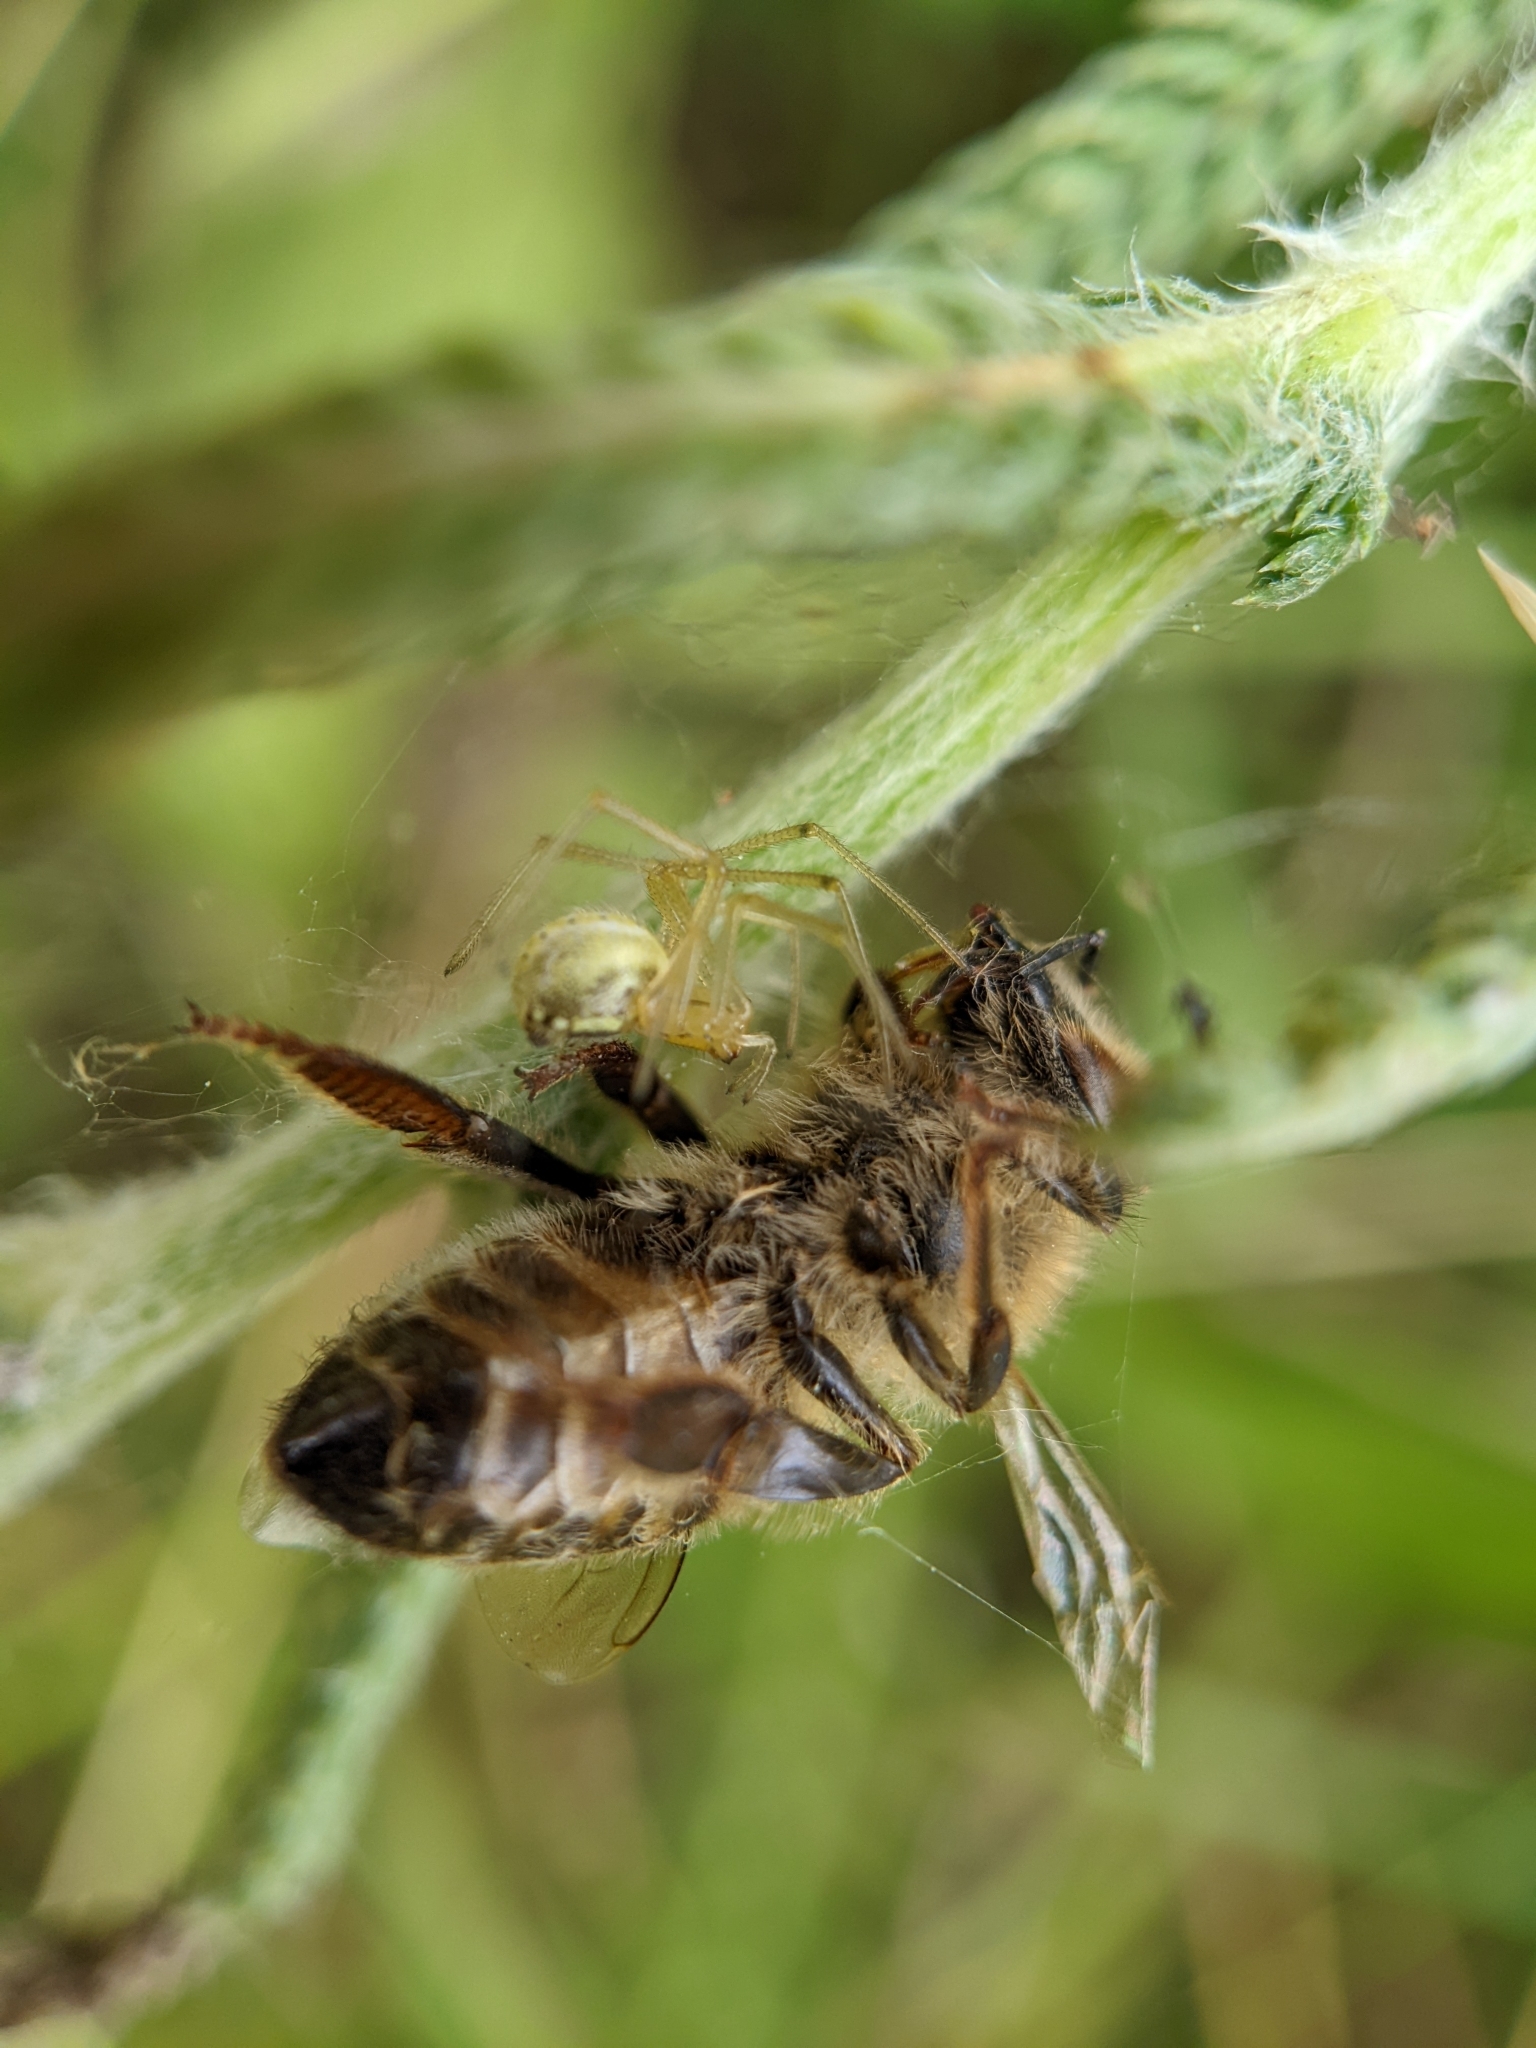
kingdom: Animalia
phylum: Arthropoda
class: Arachnida
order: Araneae
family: Theridiidae
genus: Enoplognatha
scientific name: Enoplognatha ovata
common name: Common candy-striped spider
